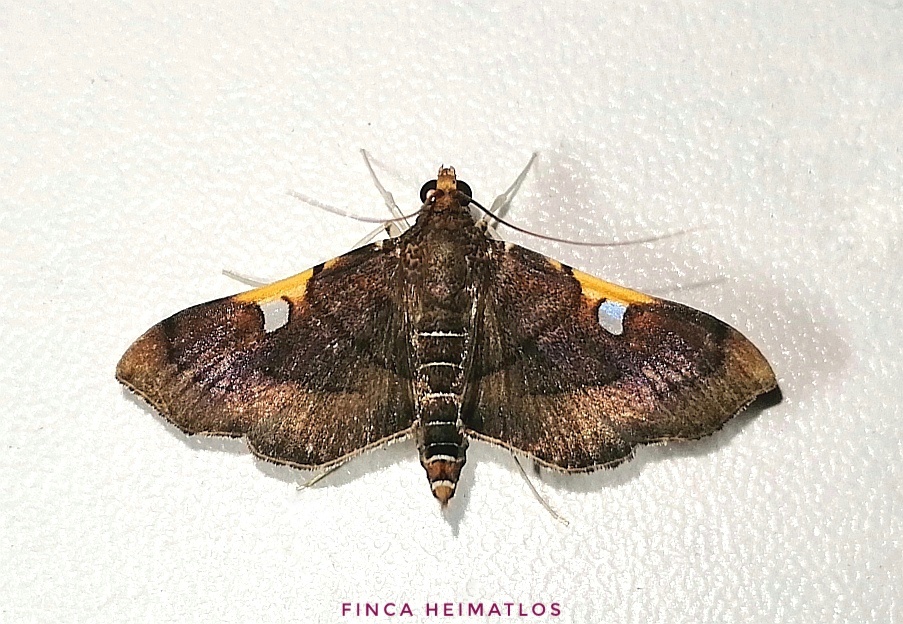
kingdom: Animalia
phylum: Arthropoda
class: Insecta
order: Lepidoptera
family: Crambidae
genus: Coenostolopsis
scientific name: Coenostolopsis terminalis
